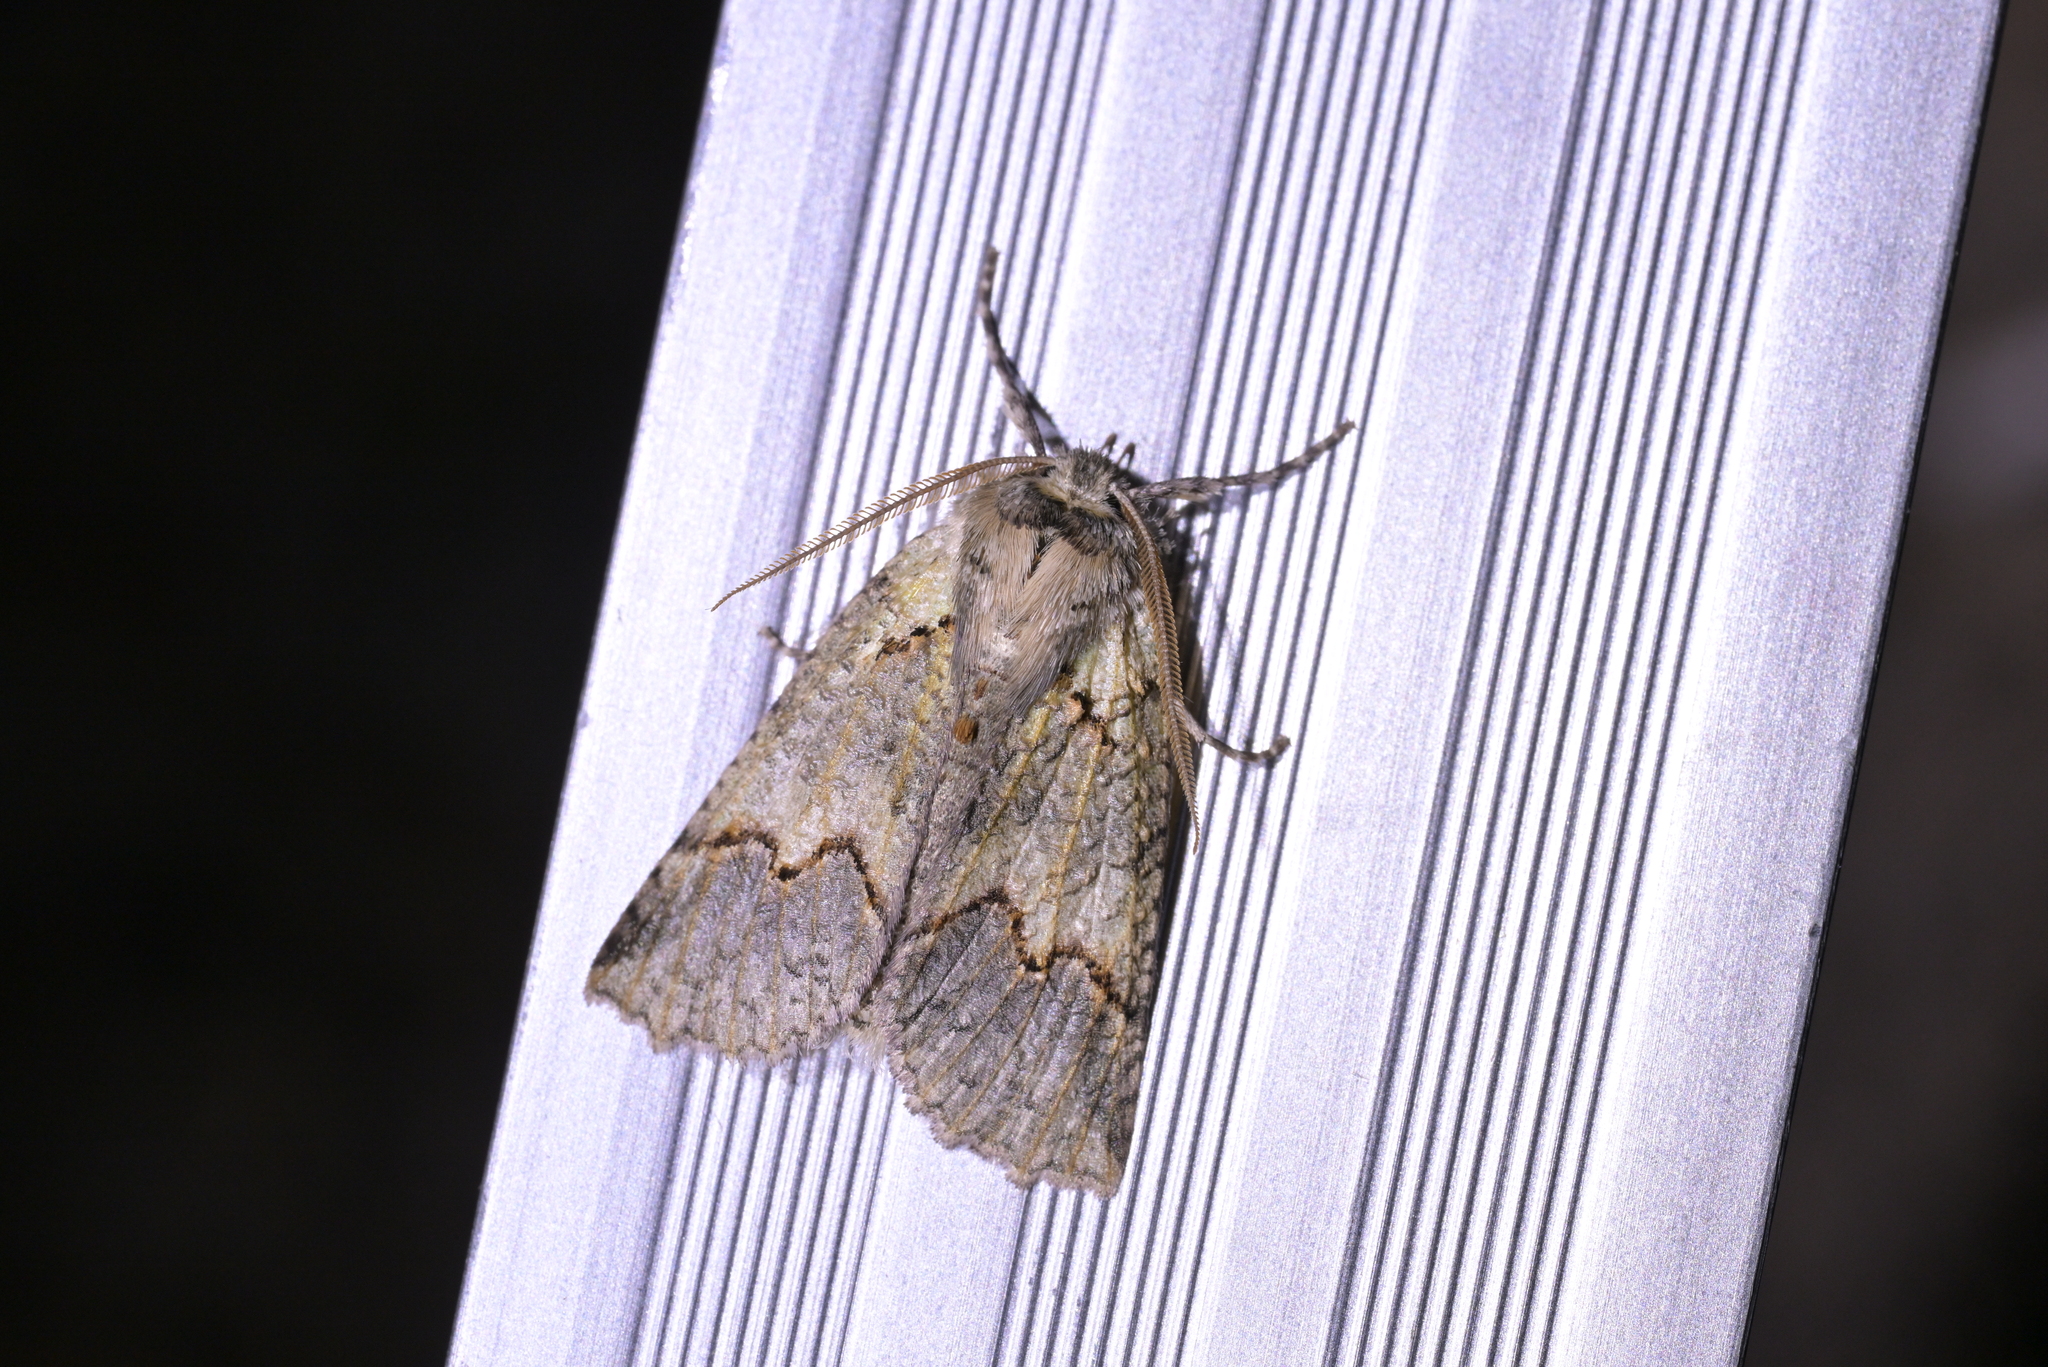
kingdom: Animalia
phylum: Arthropoda
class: Insecta
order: Lepidoptera
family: Geometridae
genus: Declana
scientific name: Declana floccosa
